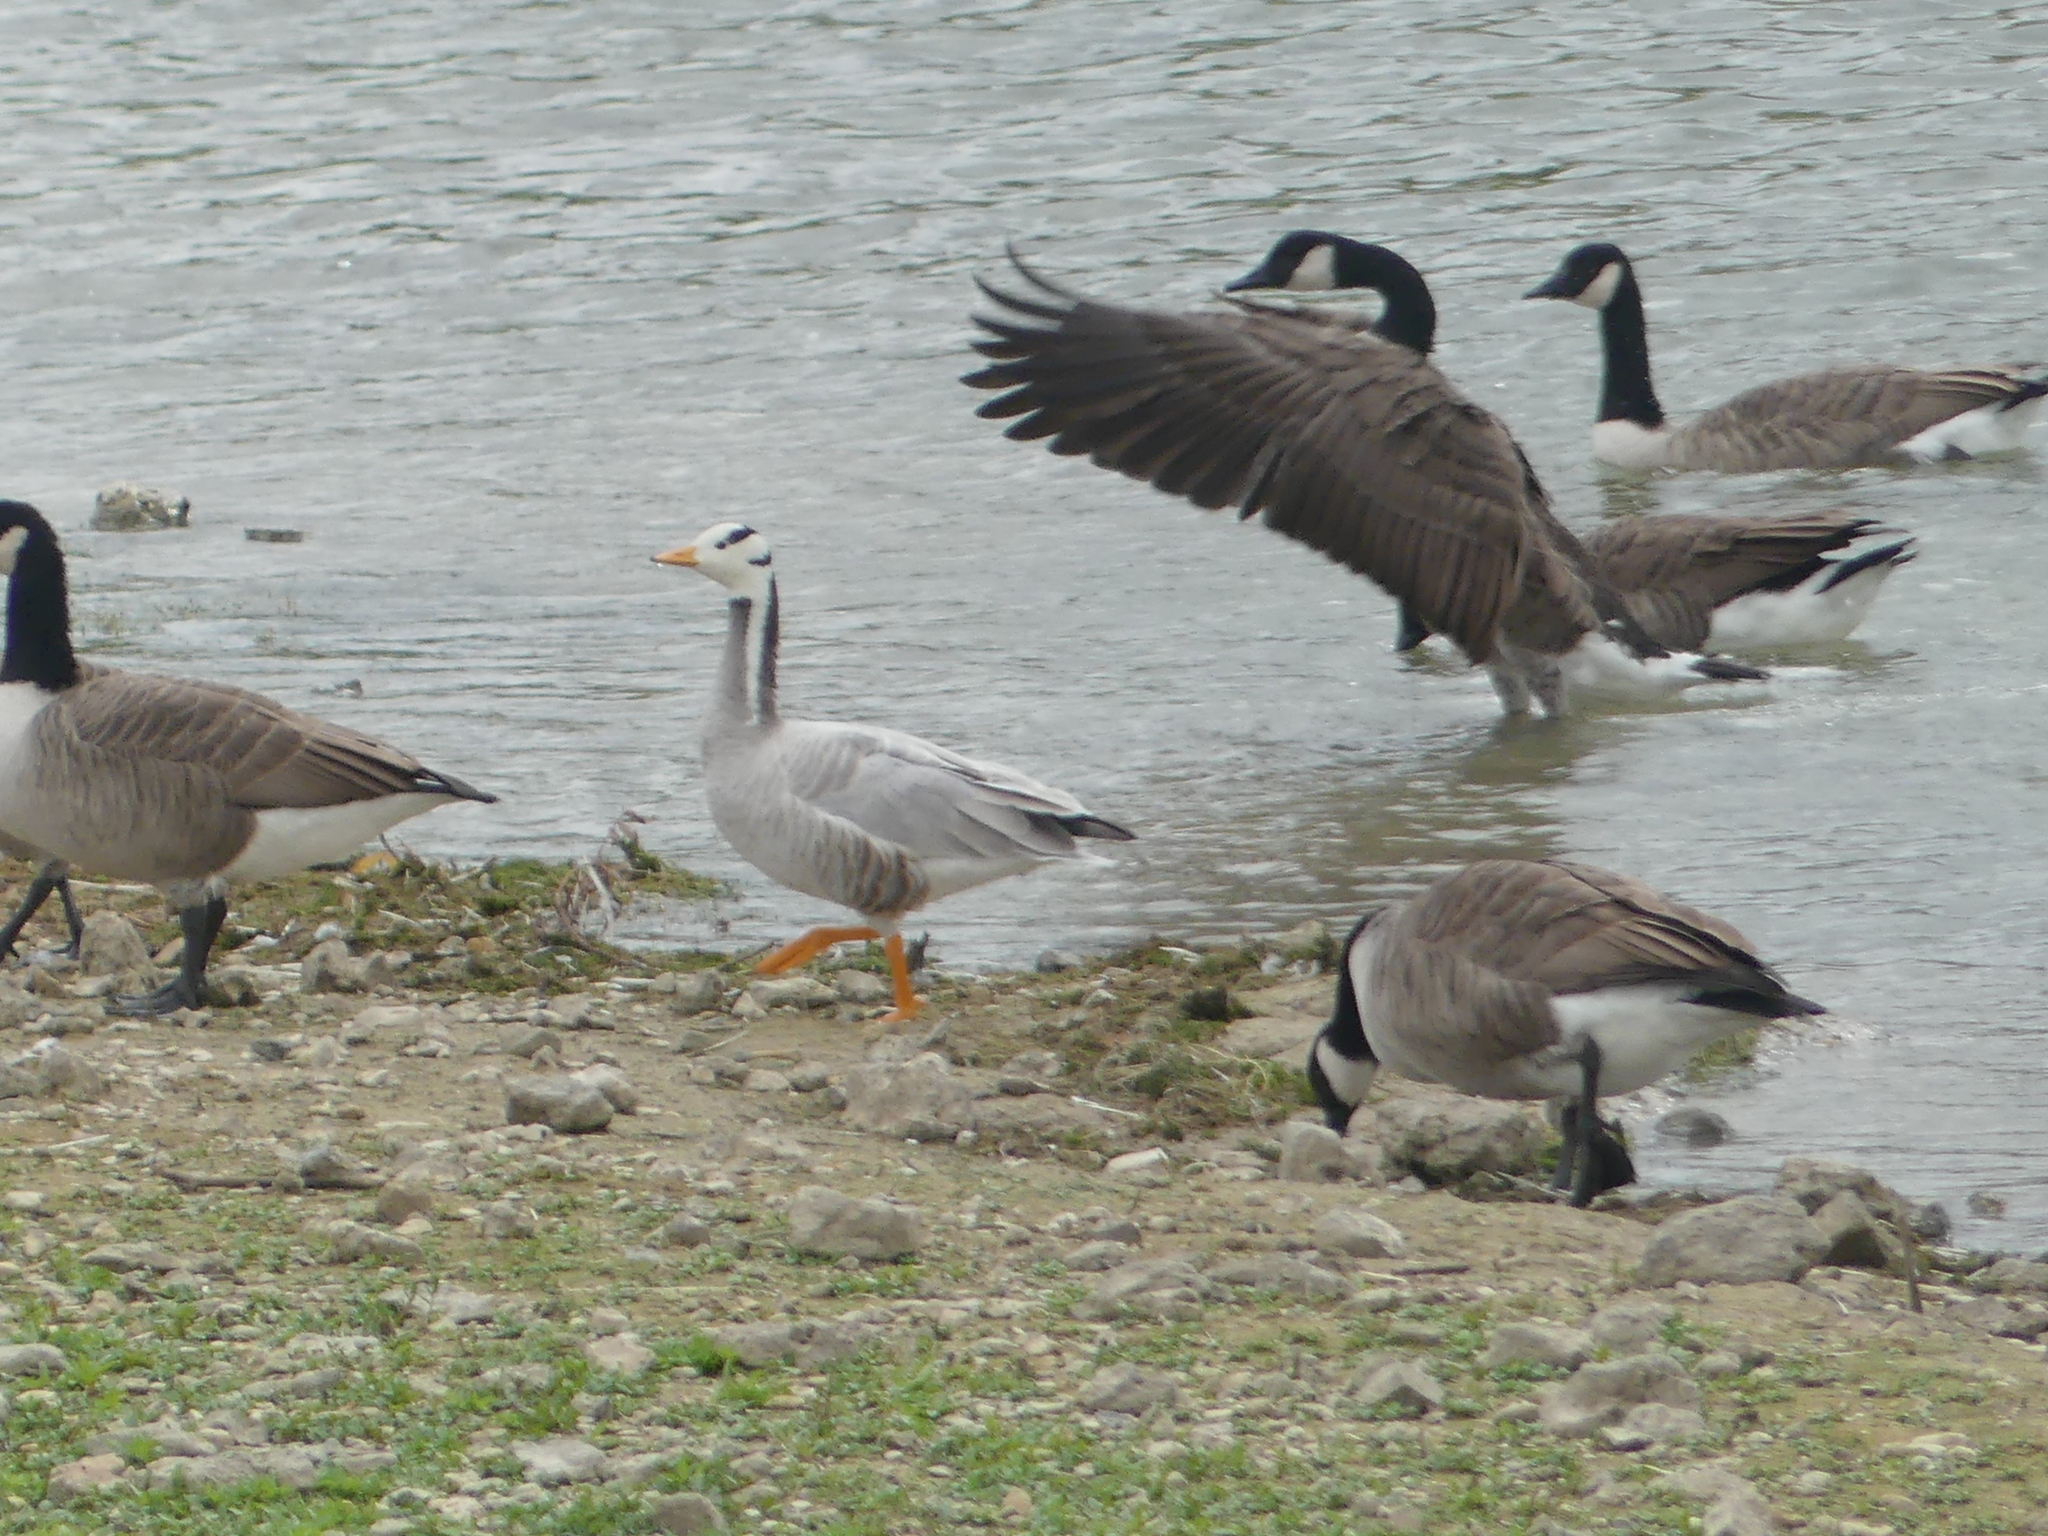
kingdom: Animalia
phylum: Chordata
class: Aves
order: Anseriformes
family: Anatidae
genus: Anser
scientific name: Anser indicus
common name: Bar-headed goose
